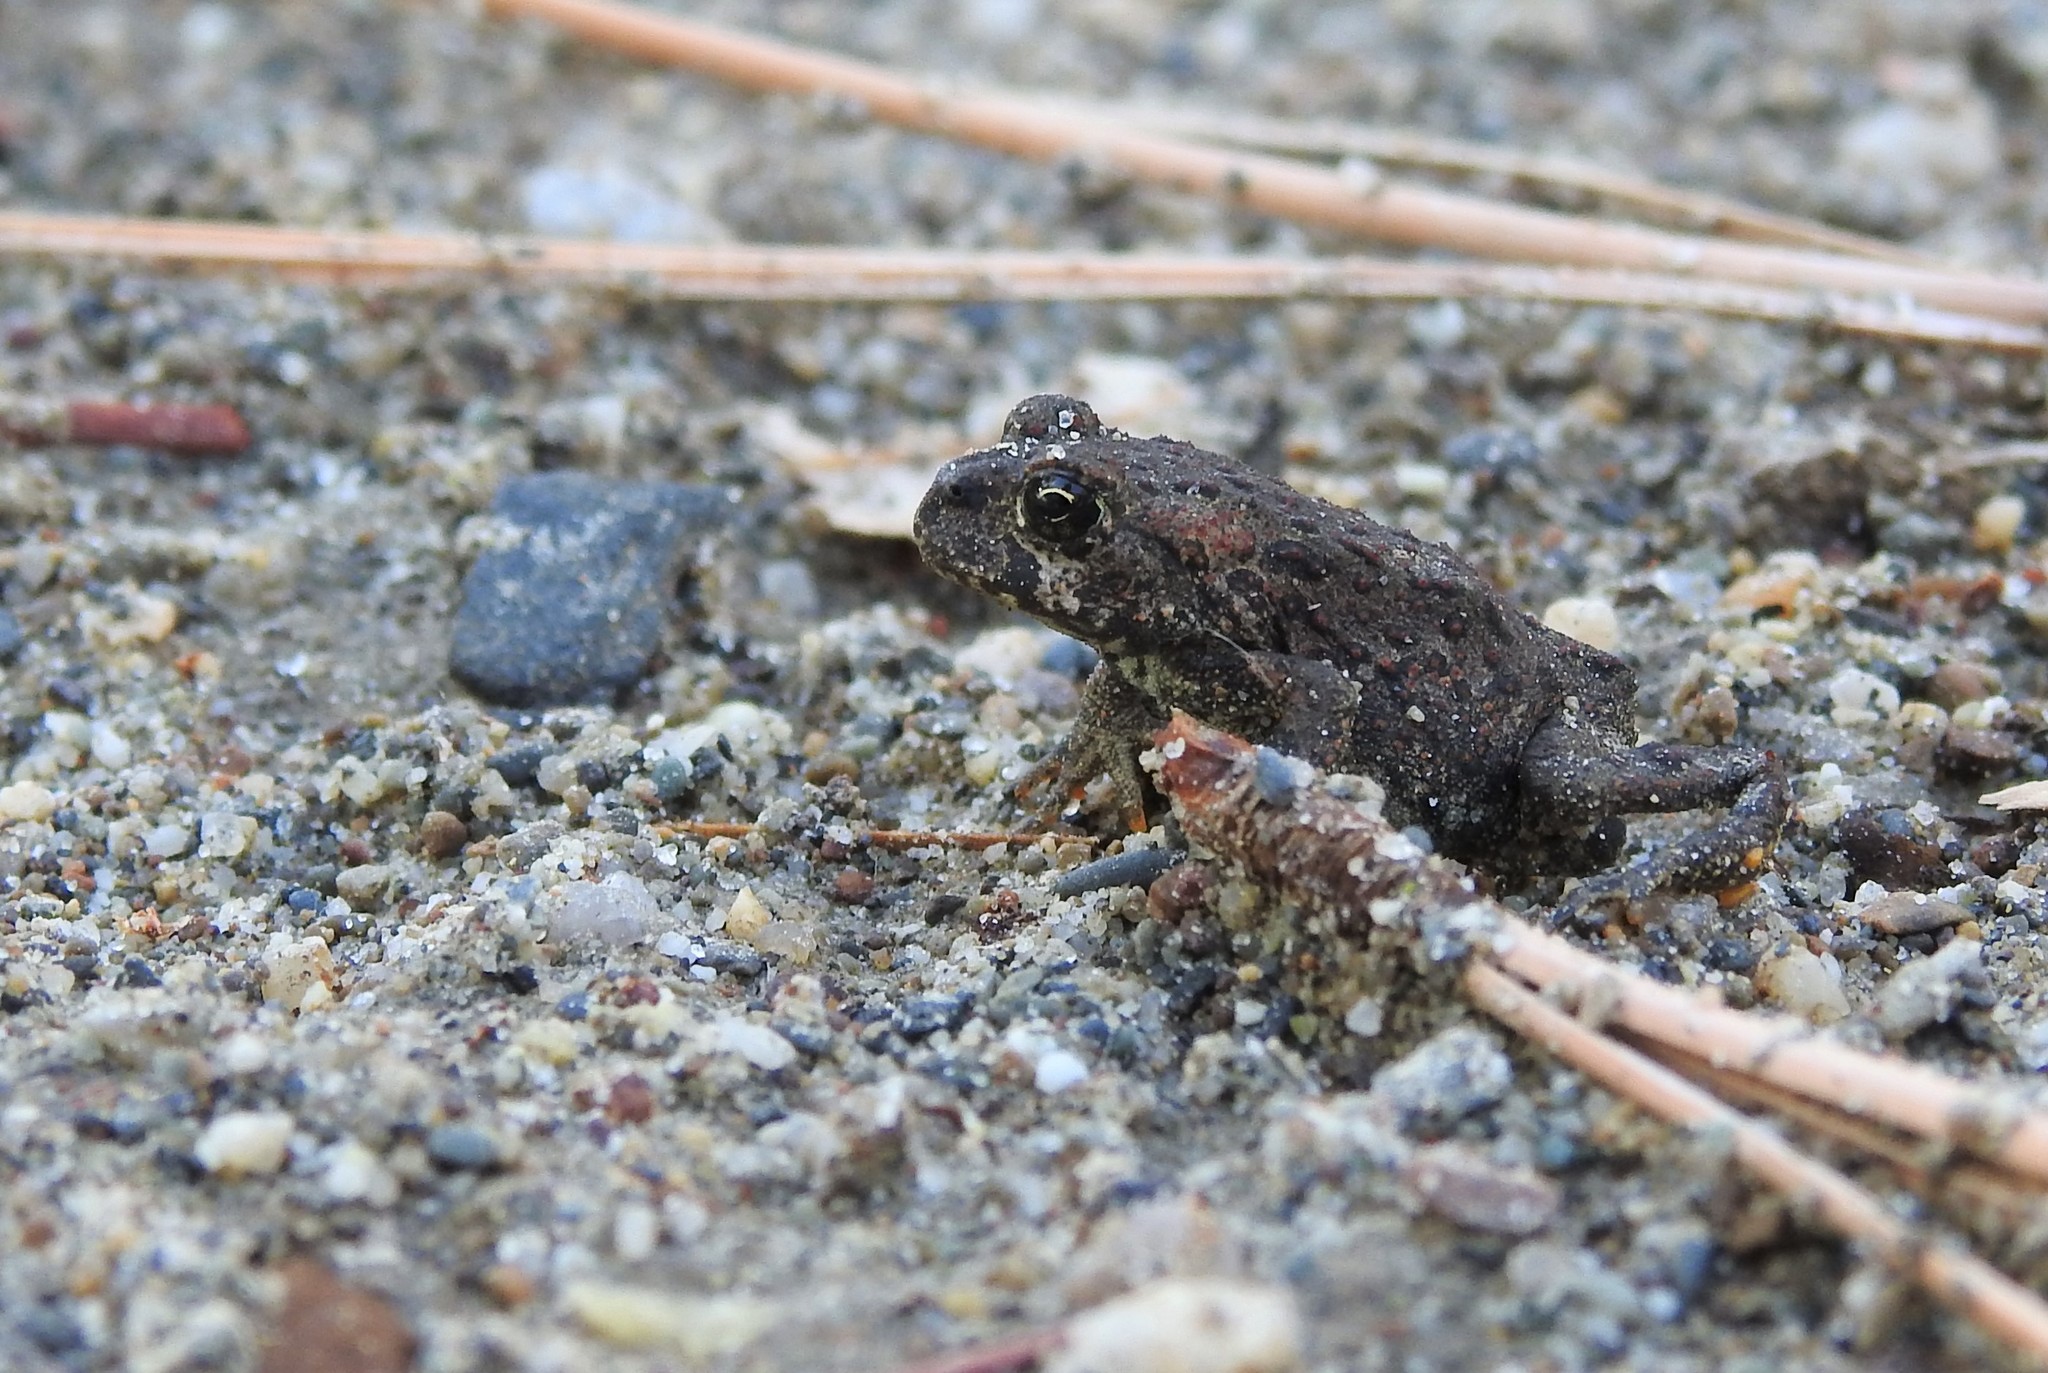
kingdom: Animalia
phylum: Chordata
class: Amphibia
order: Anura
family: Bufonidae
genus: Anaxyrus
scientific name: Anaxyrus boreas
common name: Western toad
